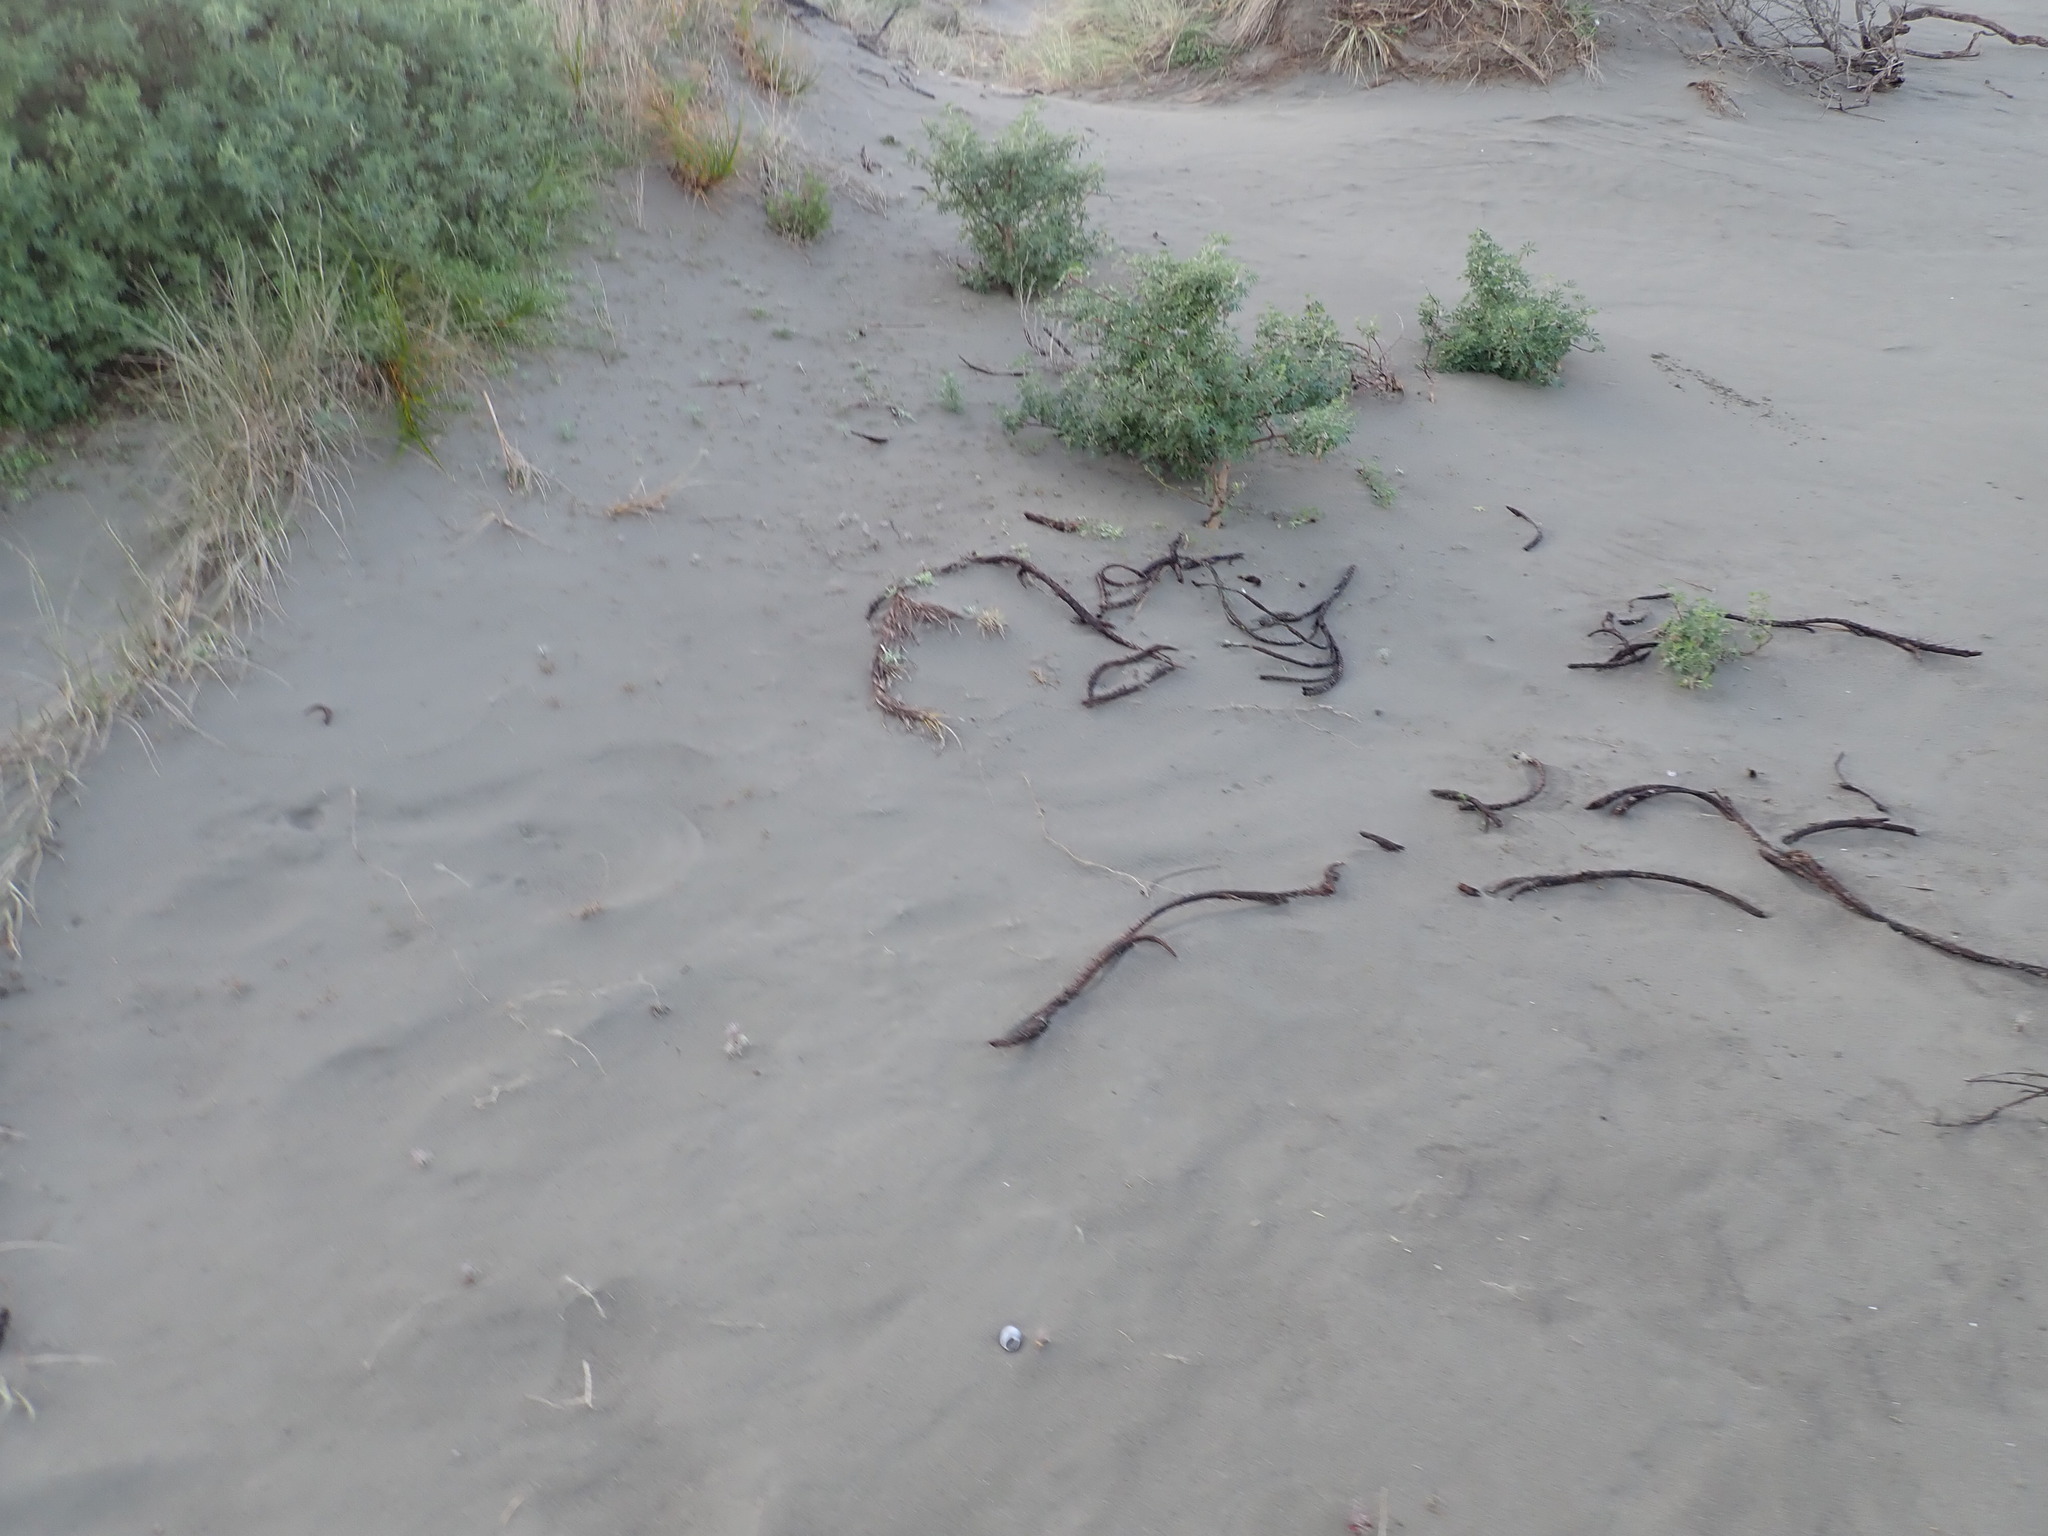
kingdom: Plantae
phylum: Tracheophyta
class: Liliopsida
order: Poales
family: Cyperaceae
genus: Ficinia
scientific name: Ficinia spiralis
